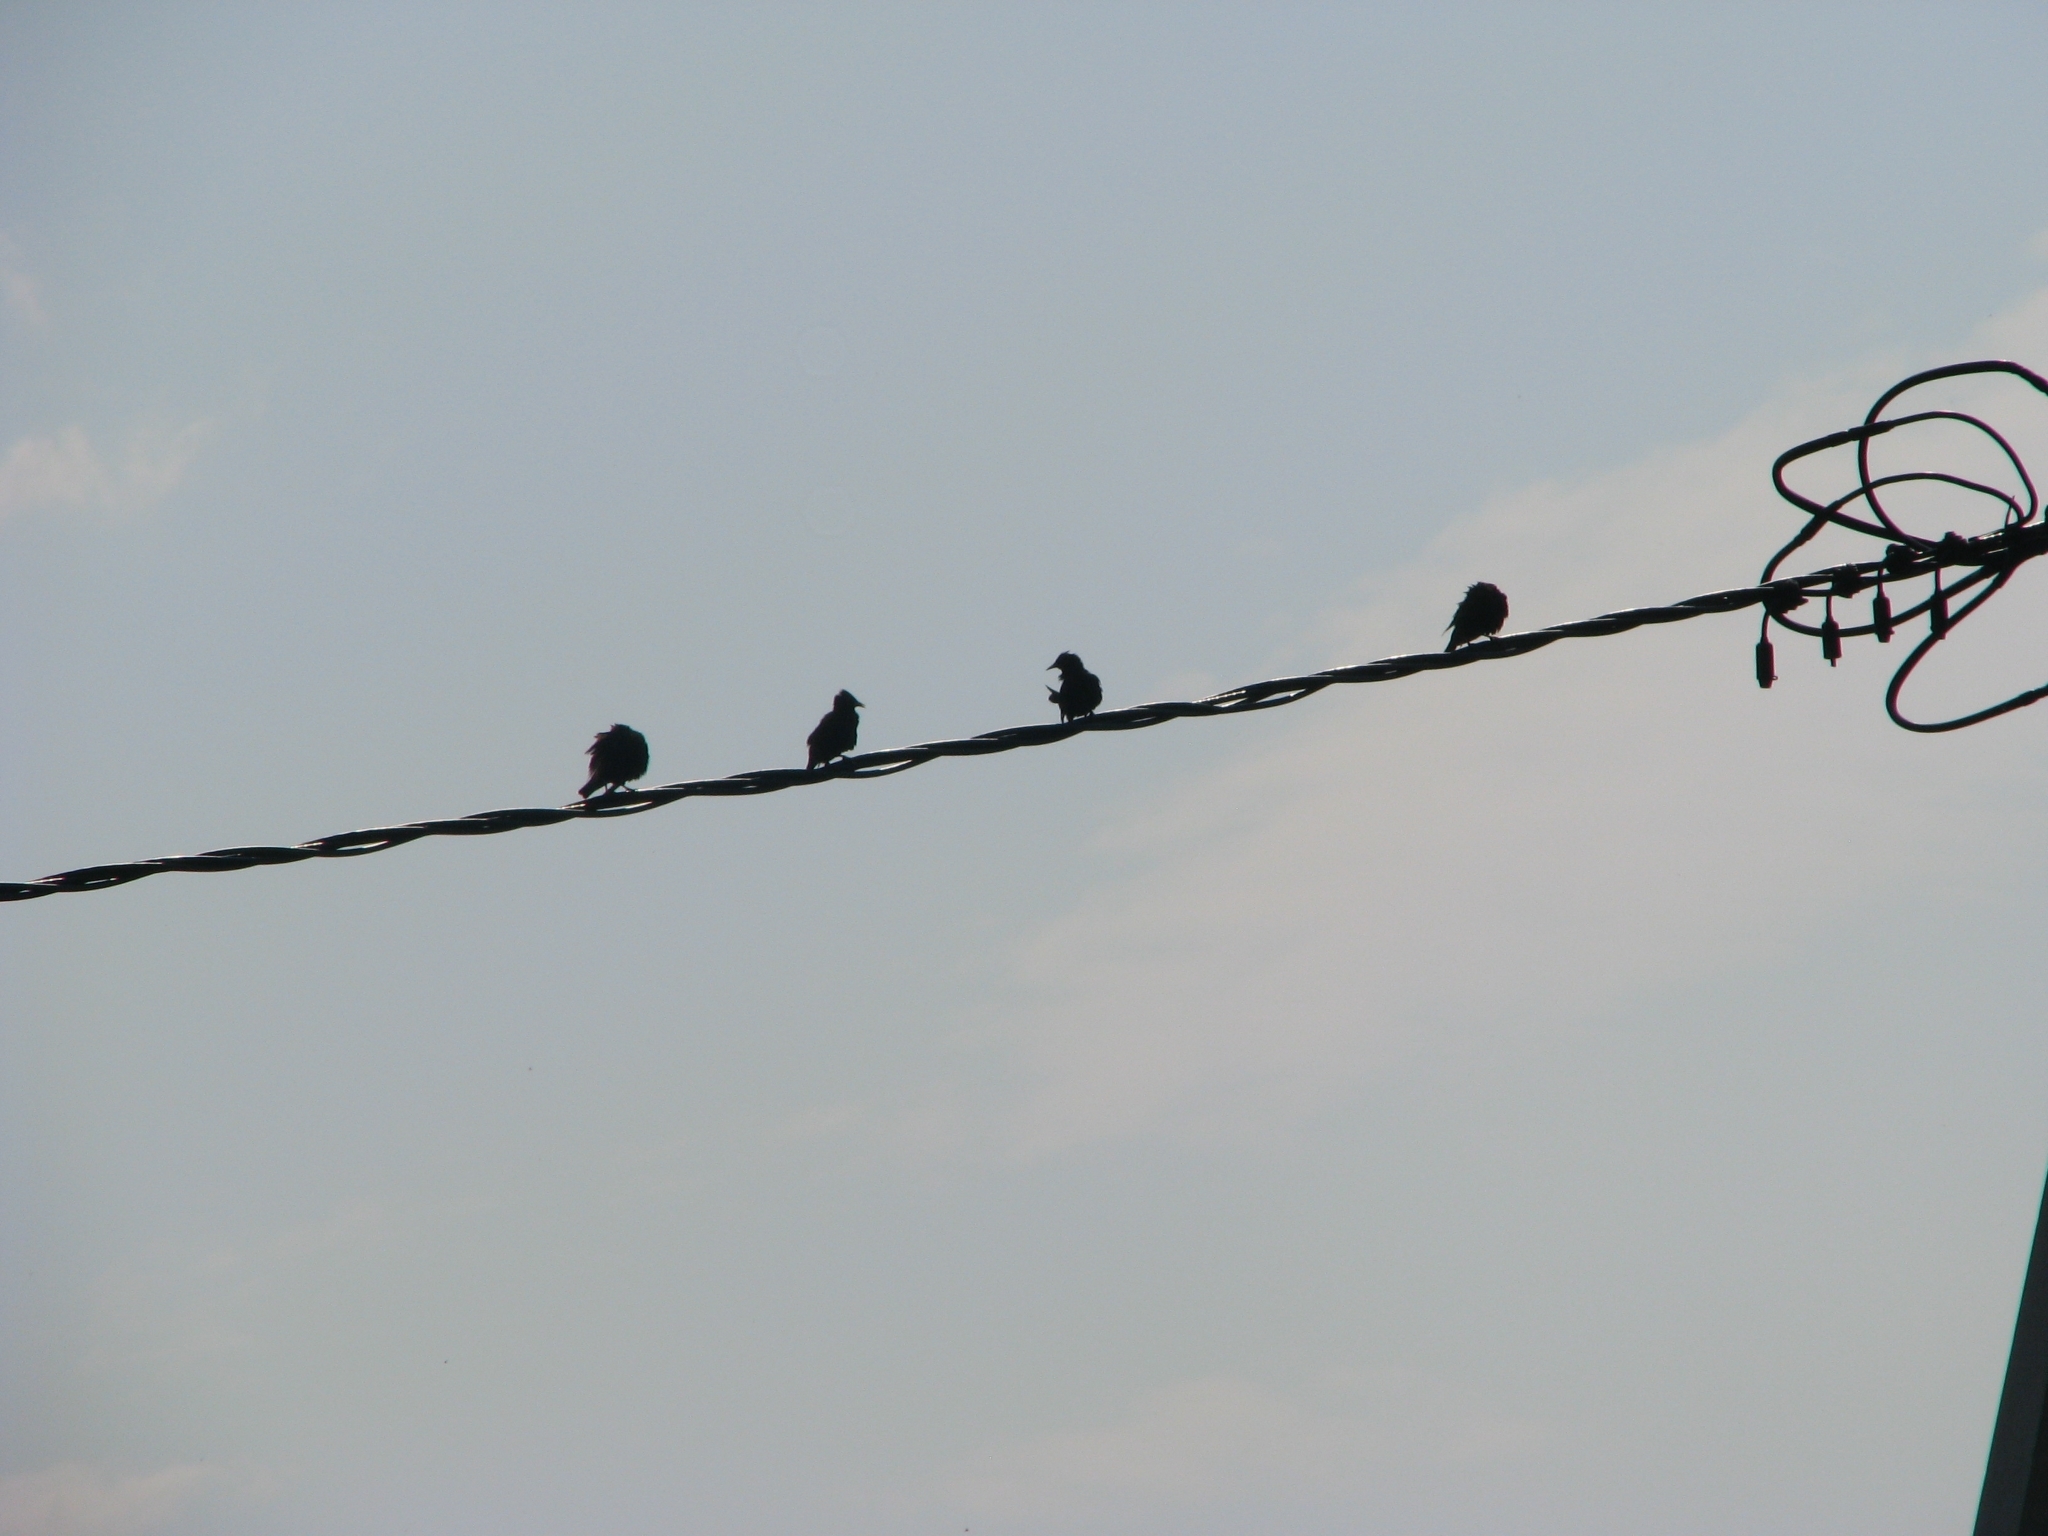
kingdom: Animalia
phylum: Chordata
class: Aves
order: Passeriformes
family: Sturnidae
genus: Sturnus
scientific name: Sturnus vulgaris
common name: Common starling
